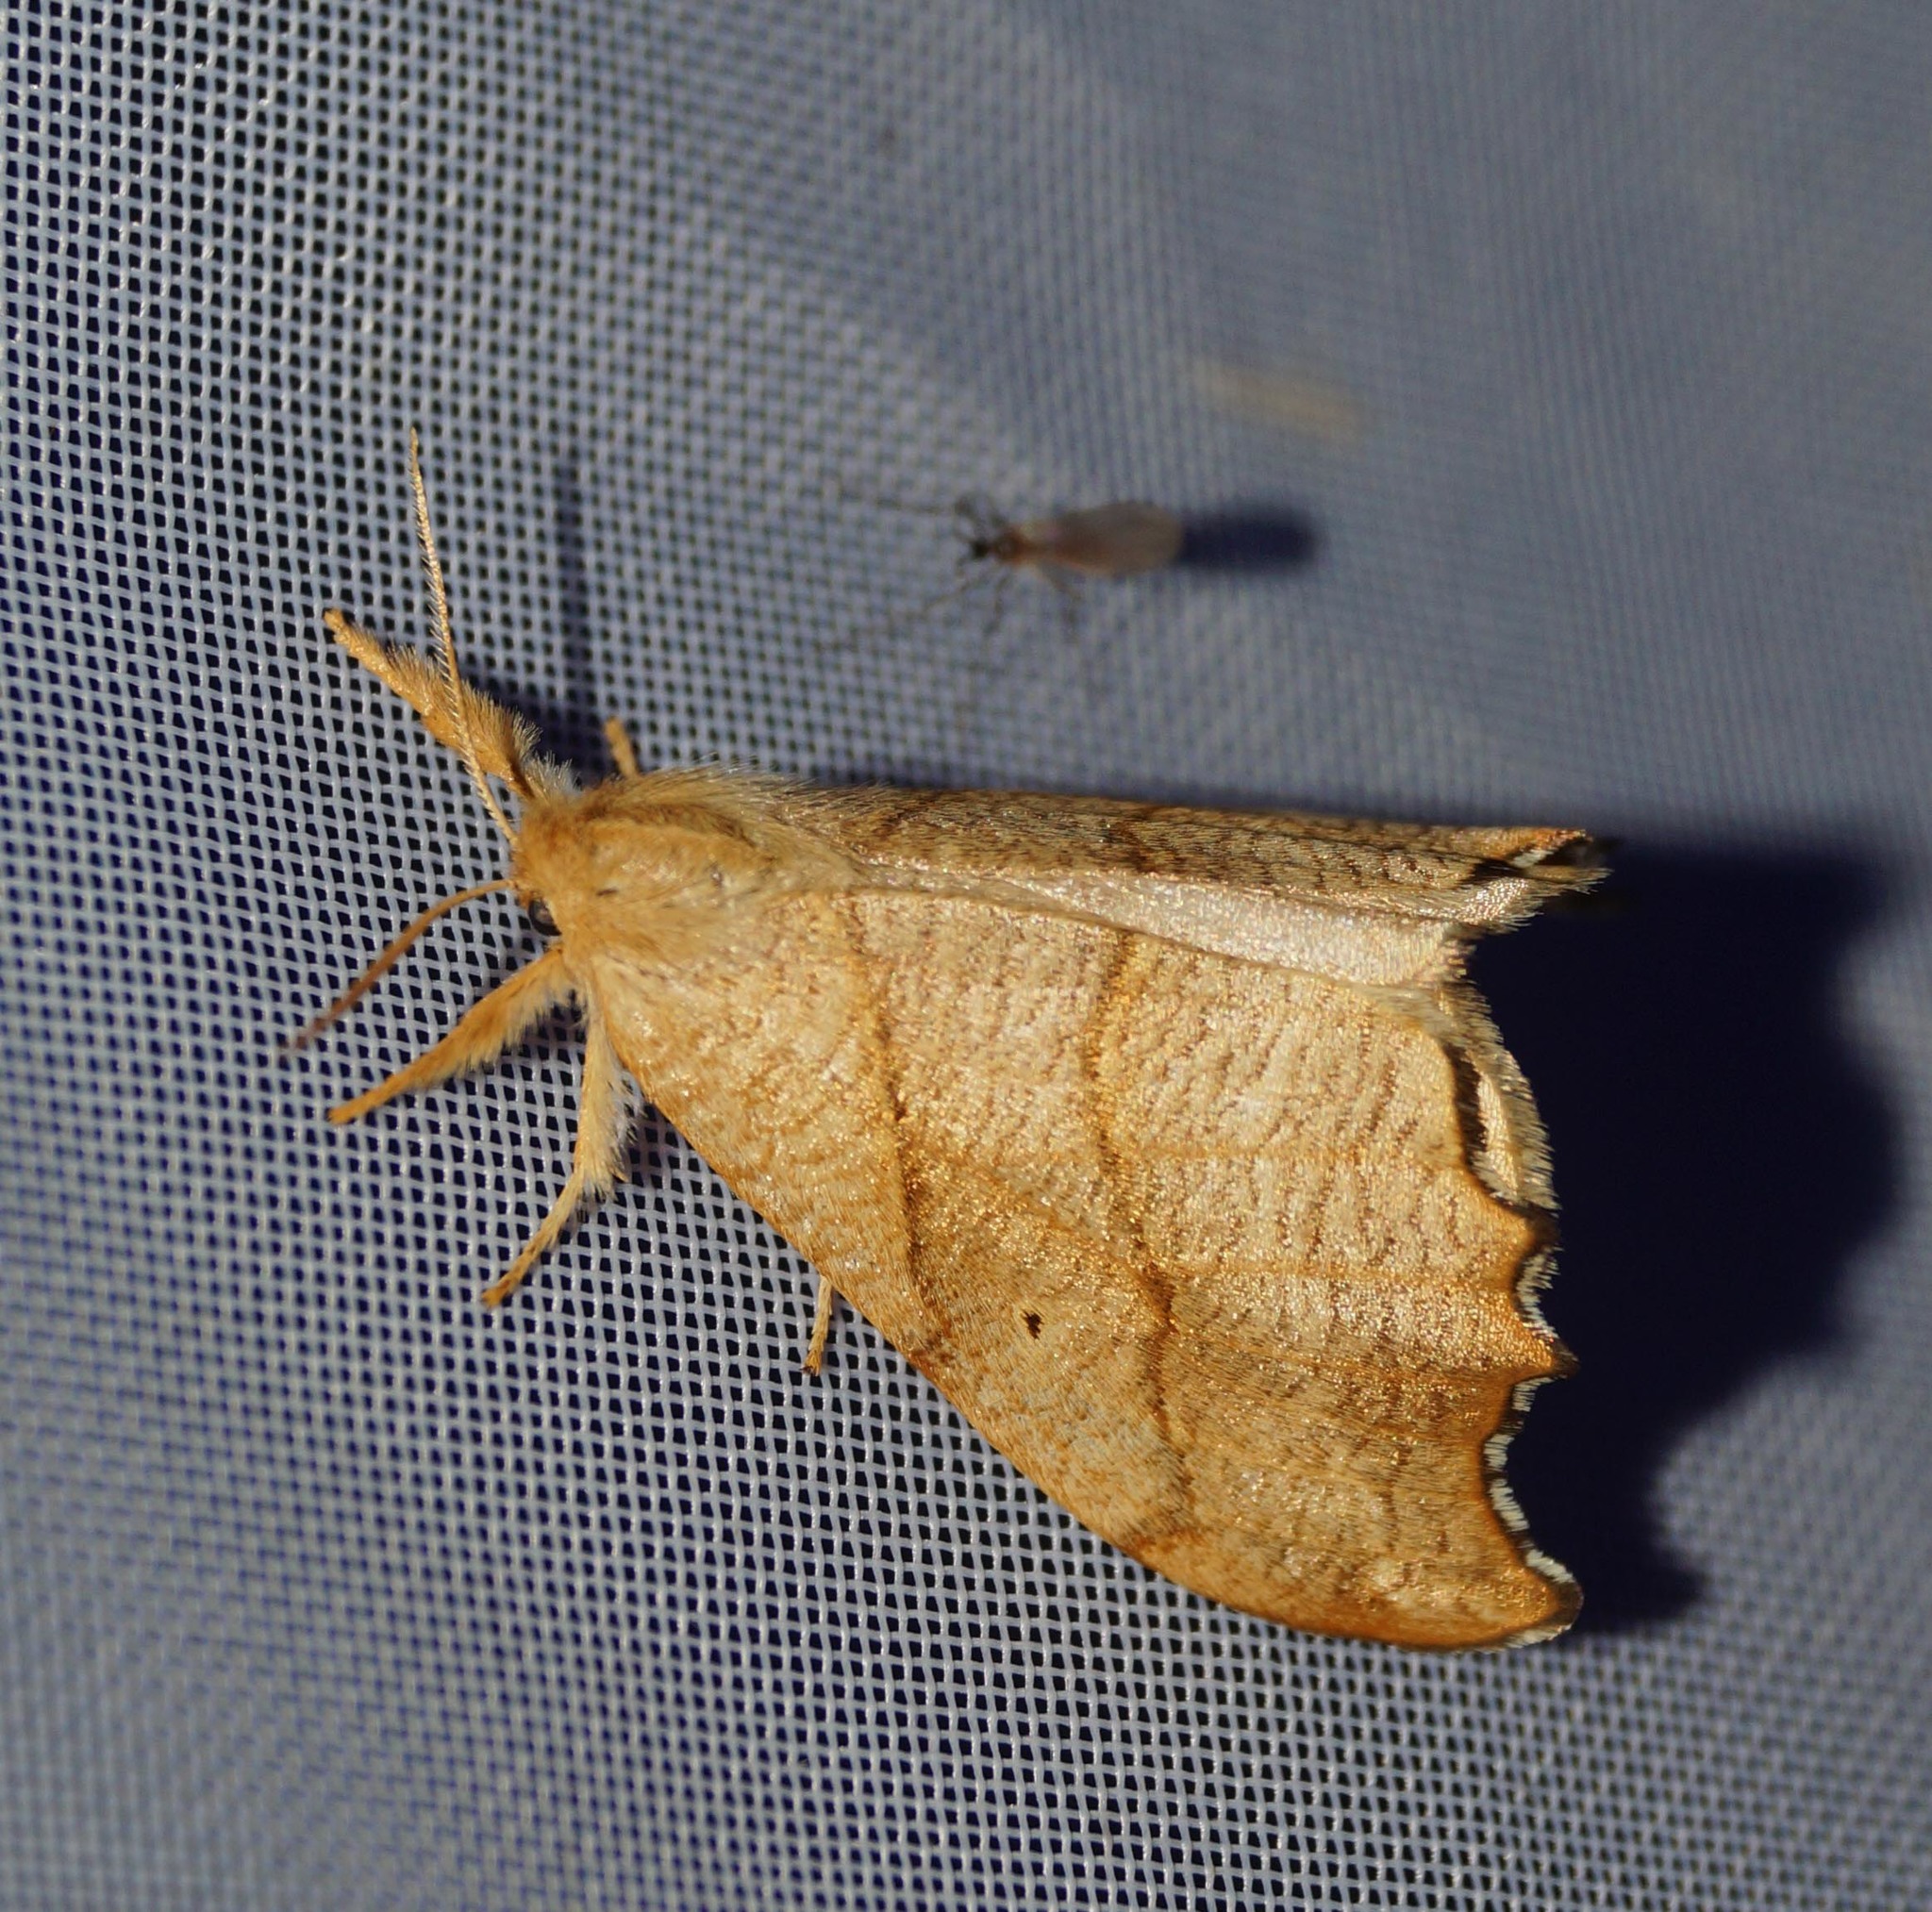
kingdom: Animalia
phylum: Arthropoda
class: Insecta
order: Lepidoptera
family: Drepanidae
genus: Falcaria
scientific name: Falcaria lacertinaria
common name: Scalloped hook-tip
